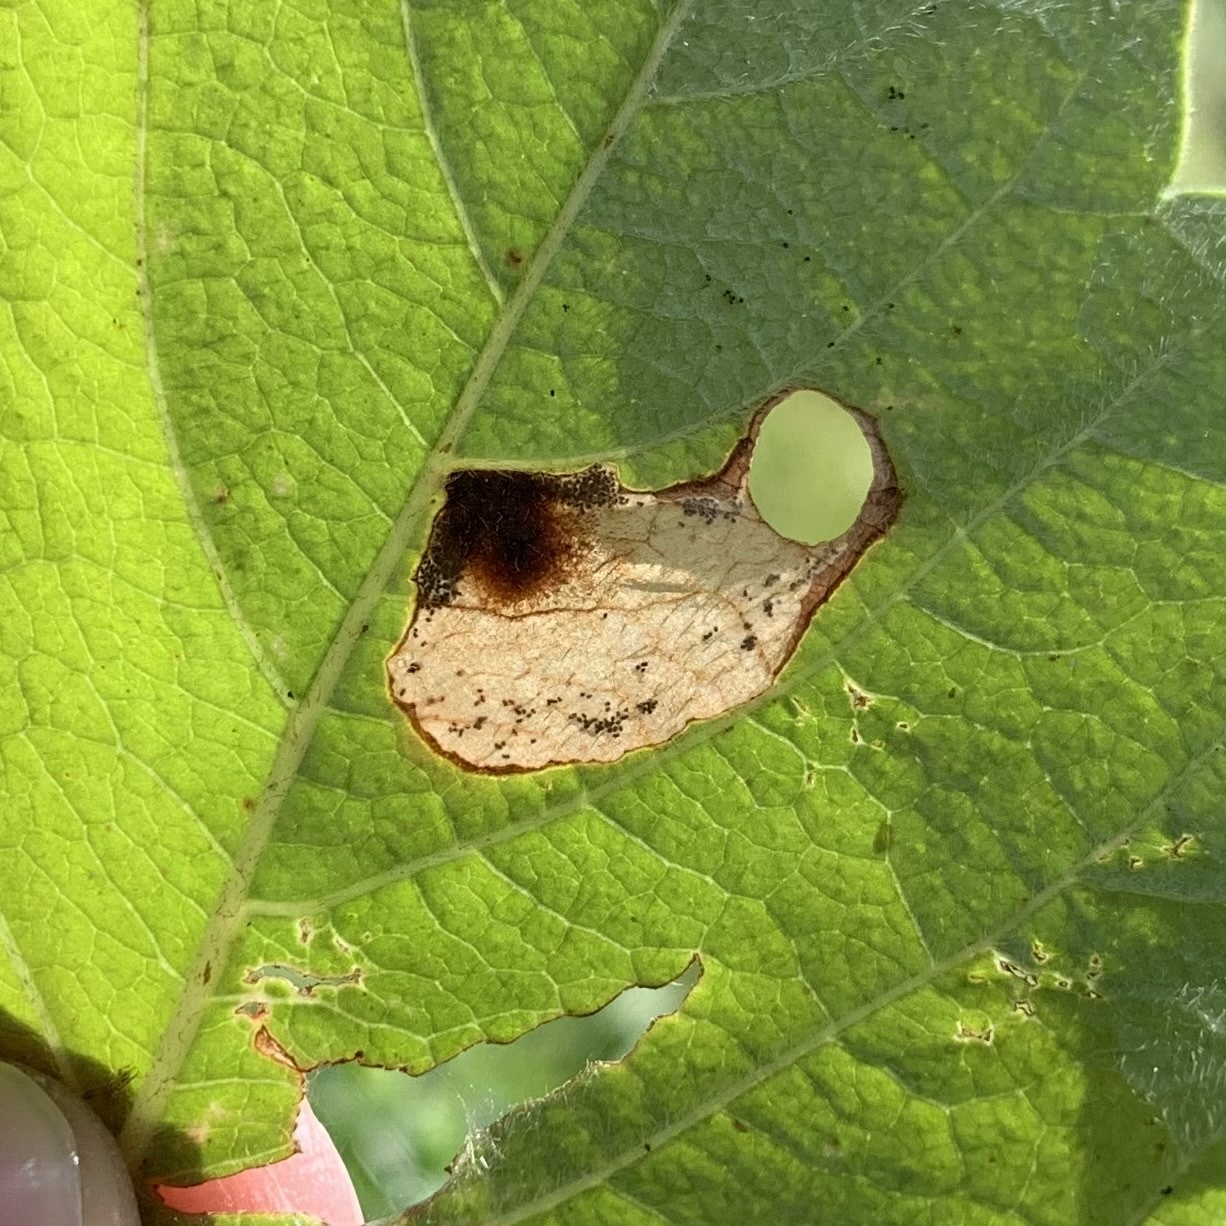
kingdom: Animalia
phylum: Arthropoda
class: Insecta
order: Lepidoptera
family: Heliozelidae
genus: Aspilanta
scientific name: Aspilanta viticordifoliella
